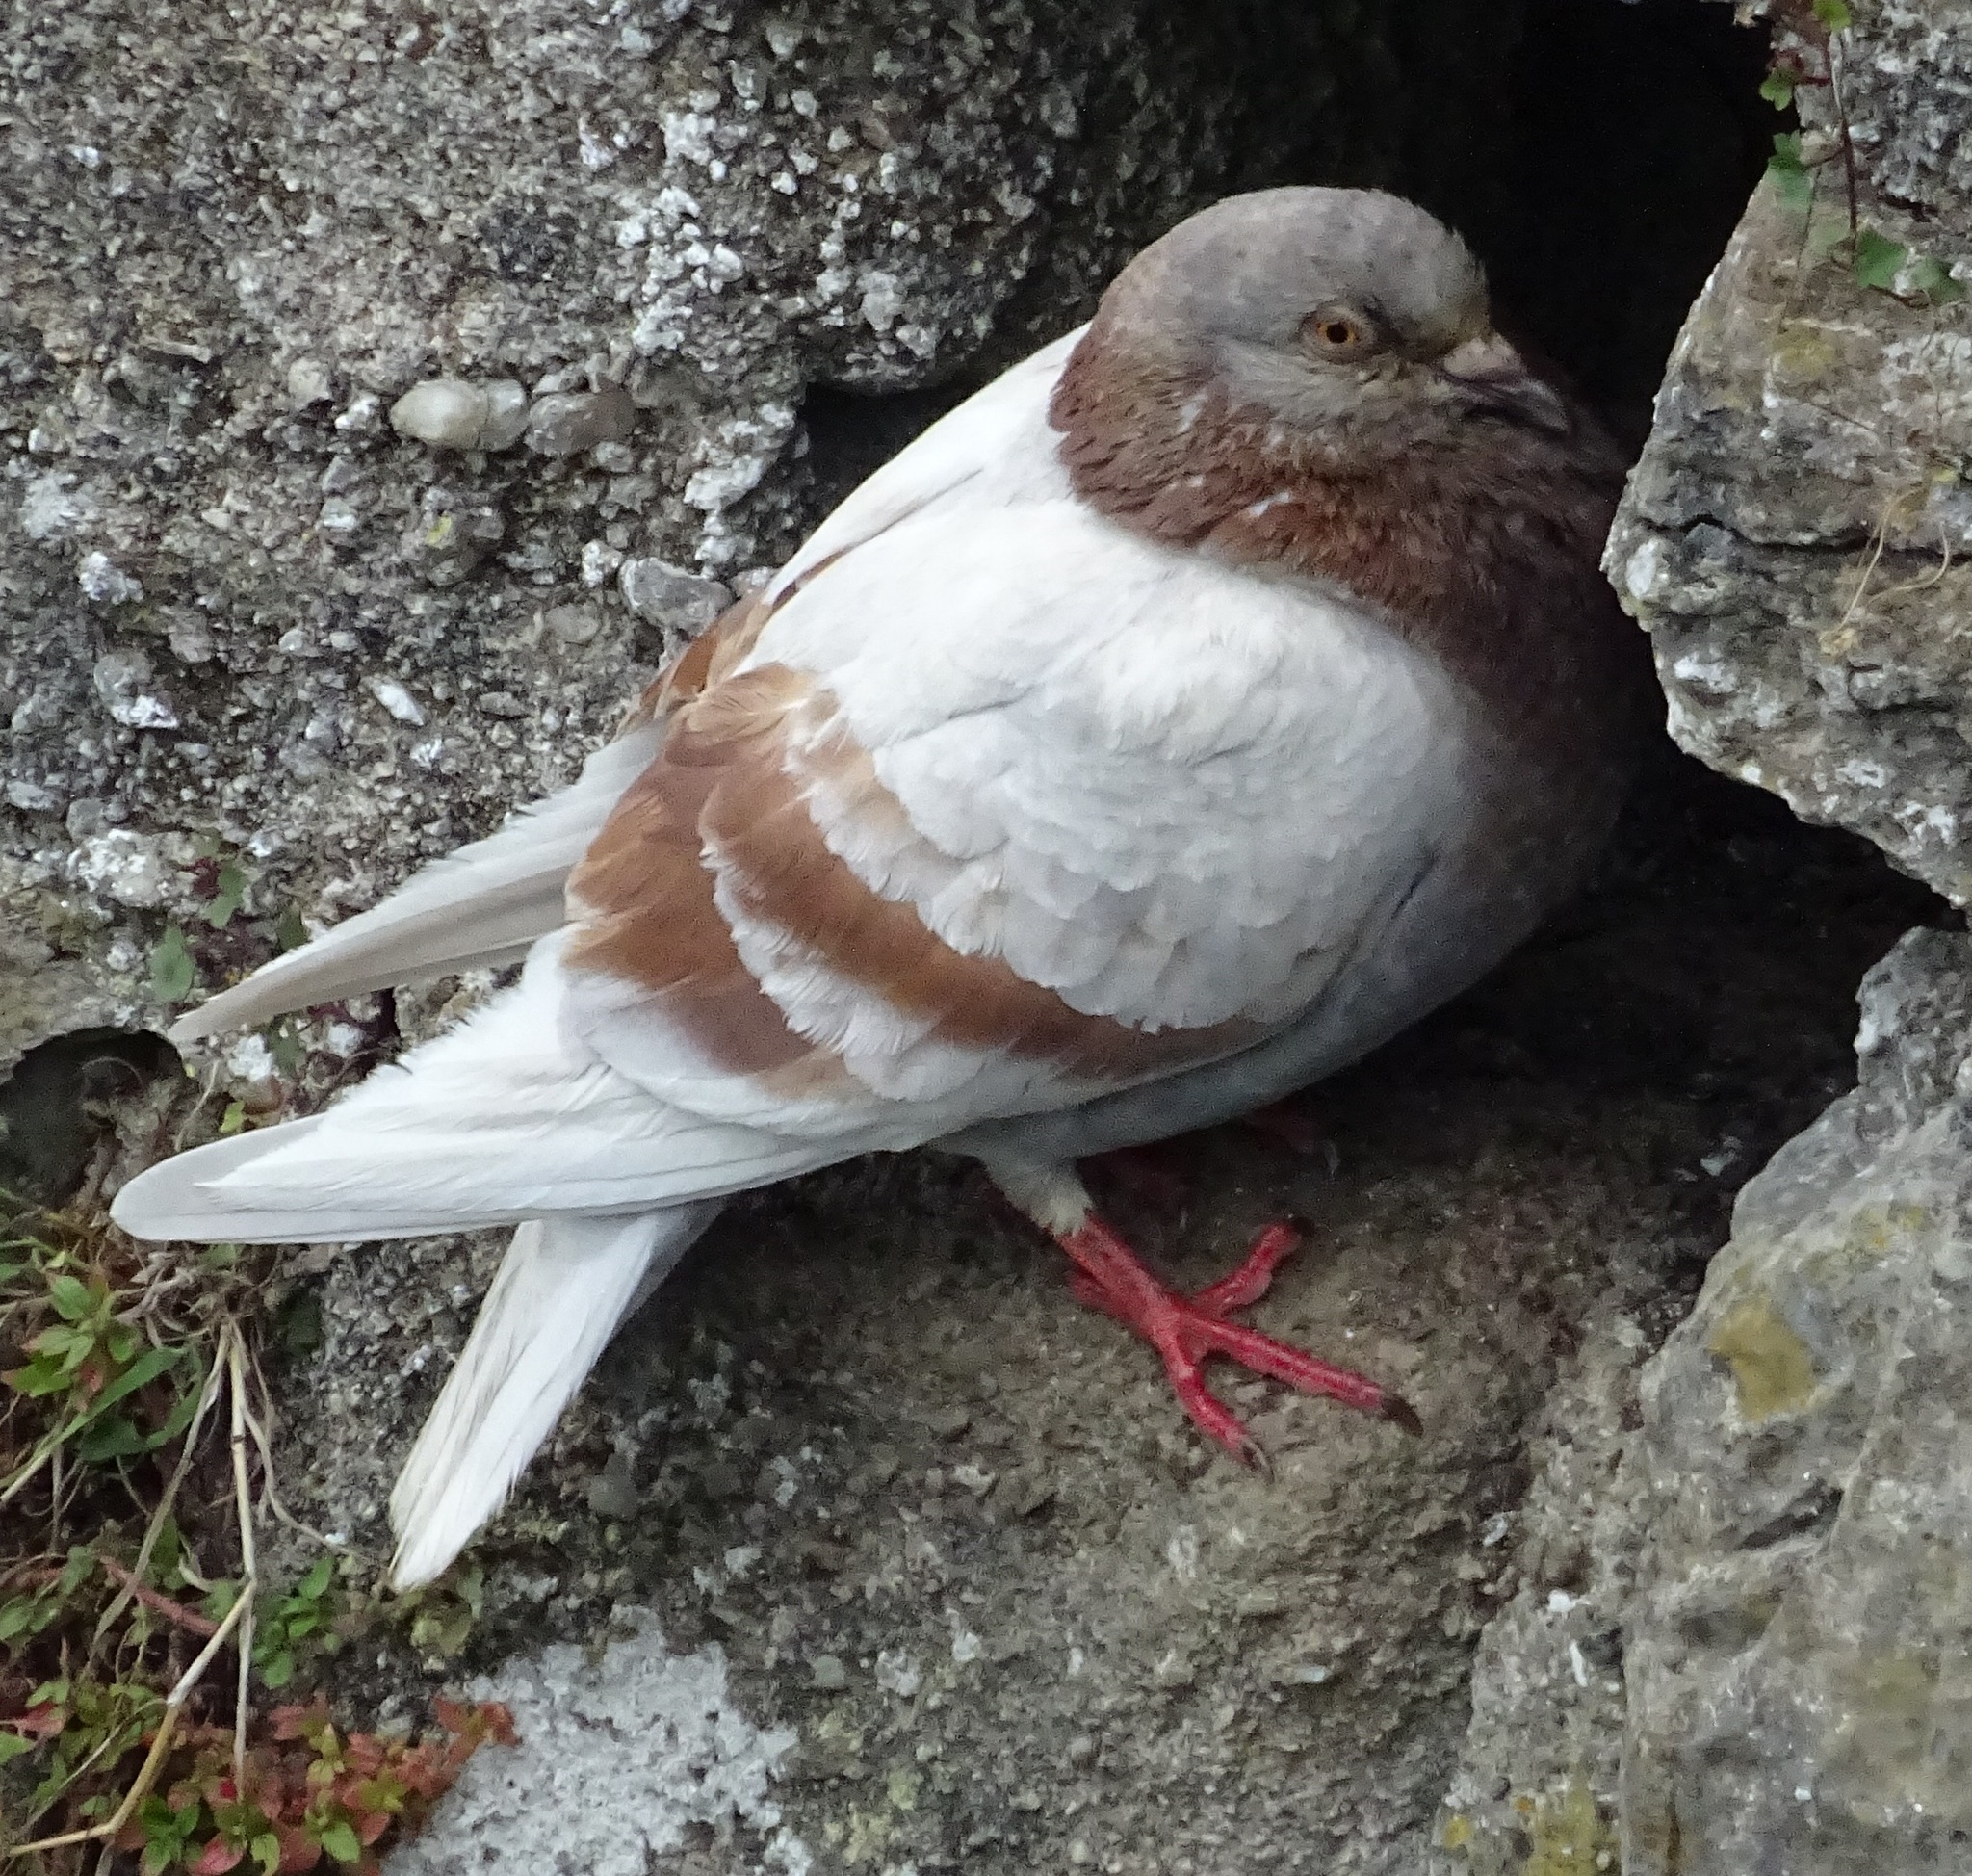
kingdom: Animalia
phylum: Chordata
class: Aves
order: Columbiformes
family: Columbidae
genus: Columba
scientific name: Columba livia
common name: Rock pigeon
